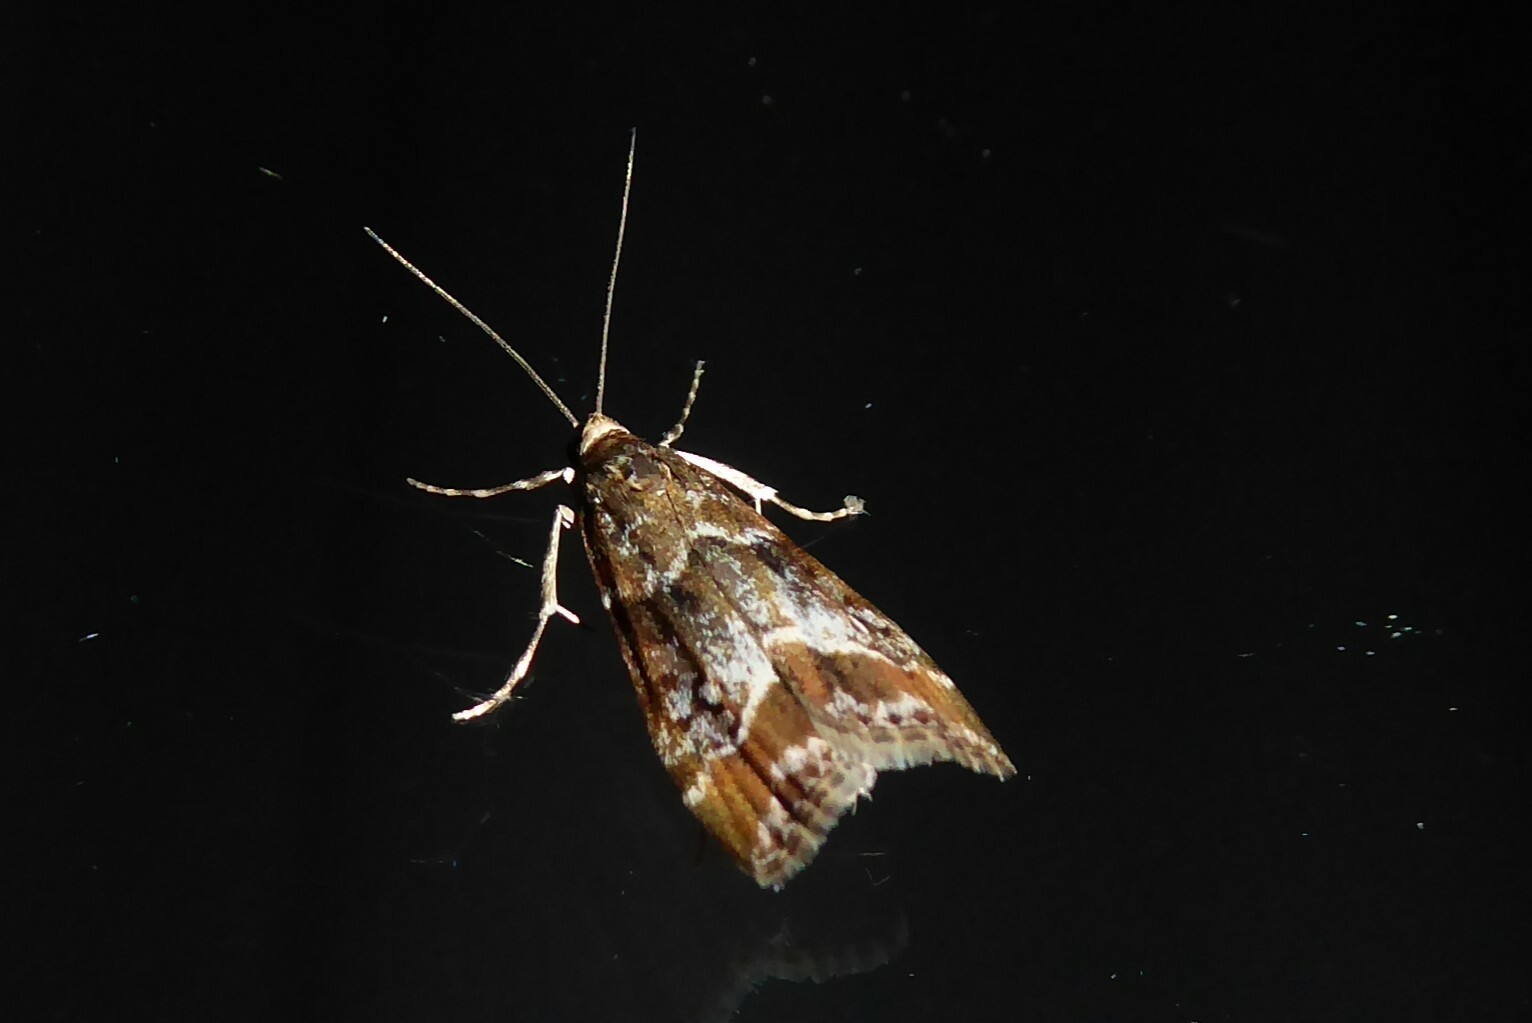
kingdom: Animalia
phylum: Arthropoda
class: Insecta
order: Lepidoptera
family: Crambidae
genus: Eudonia
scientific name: Eudonia legnota
